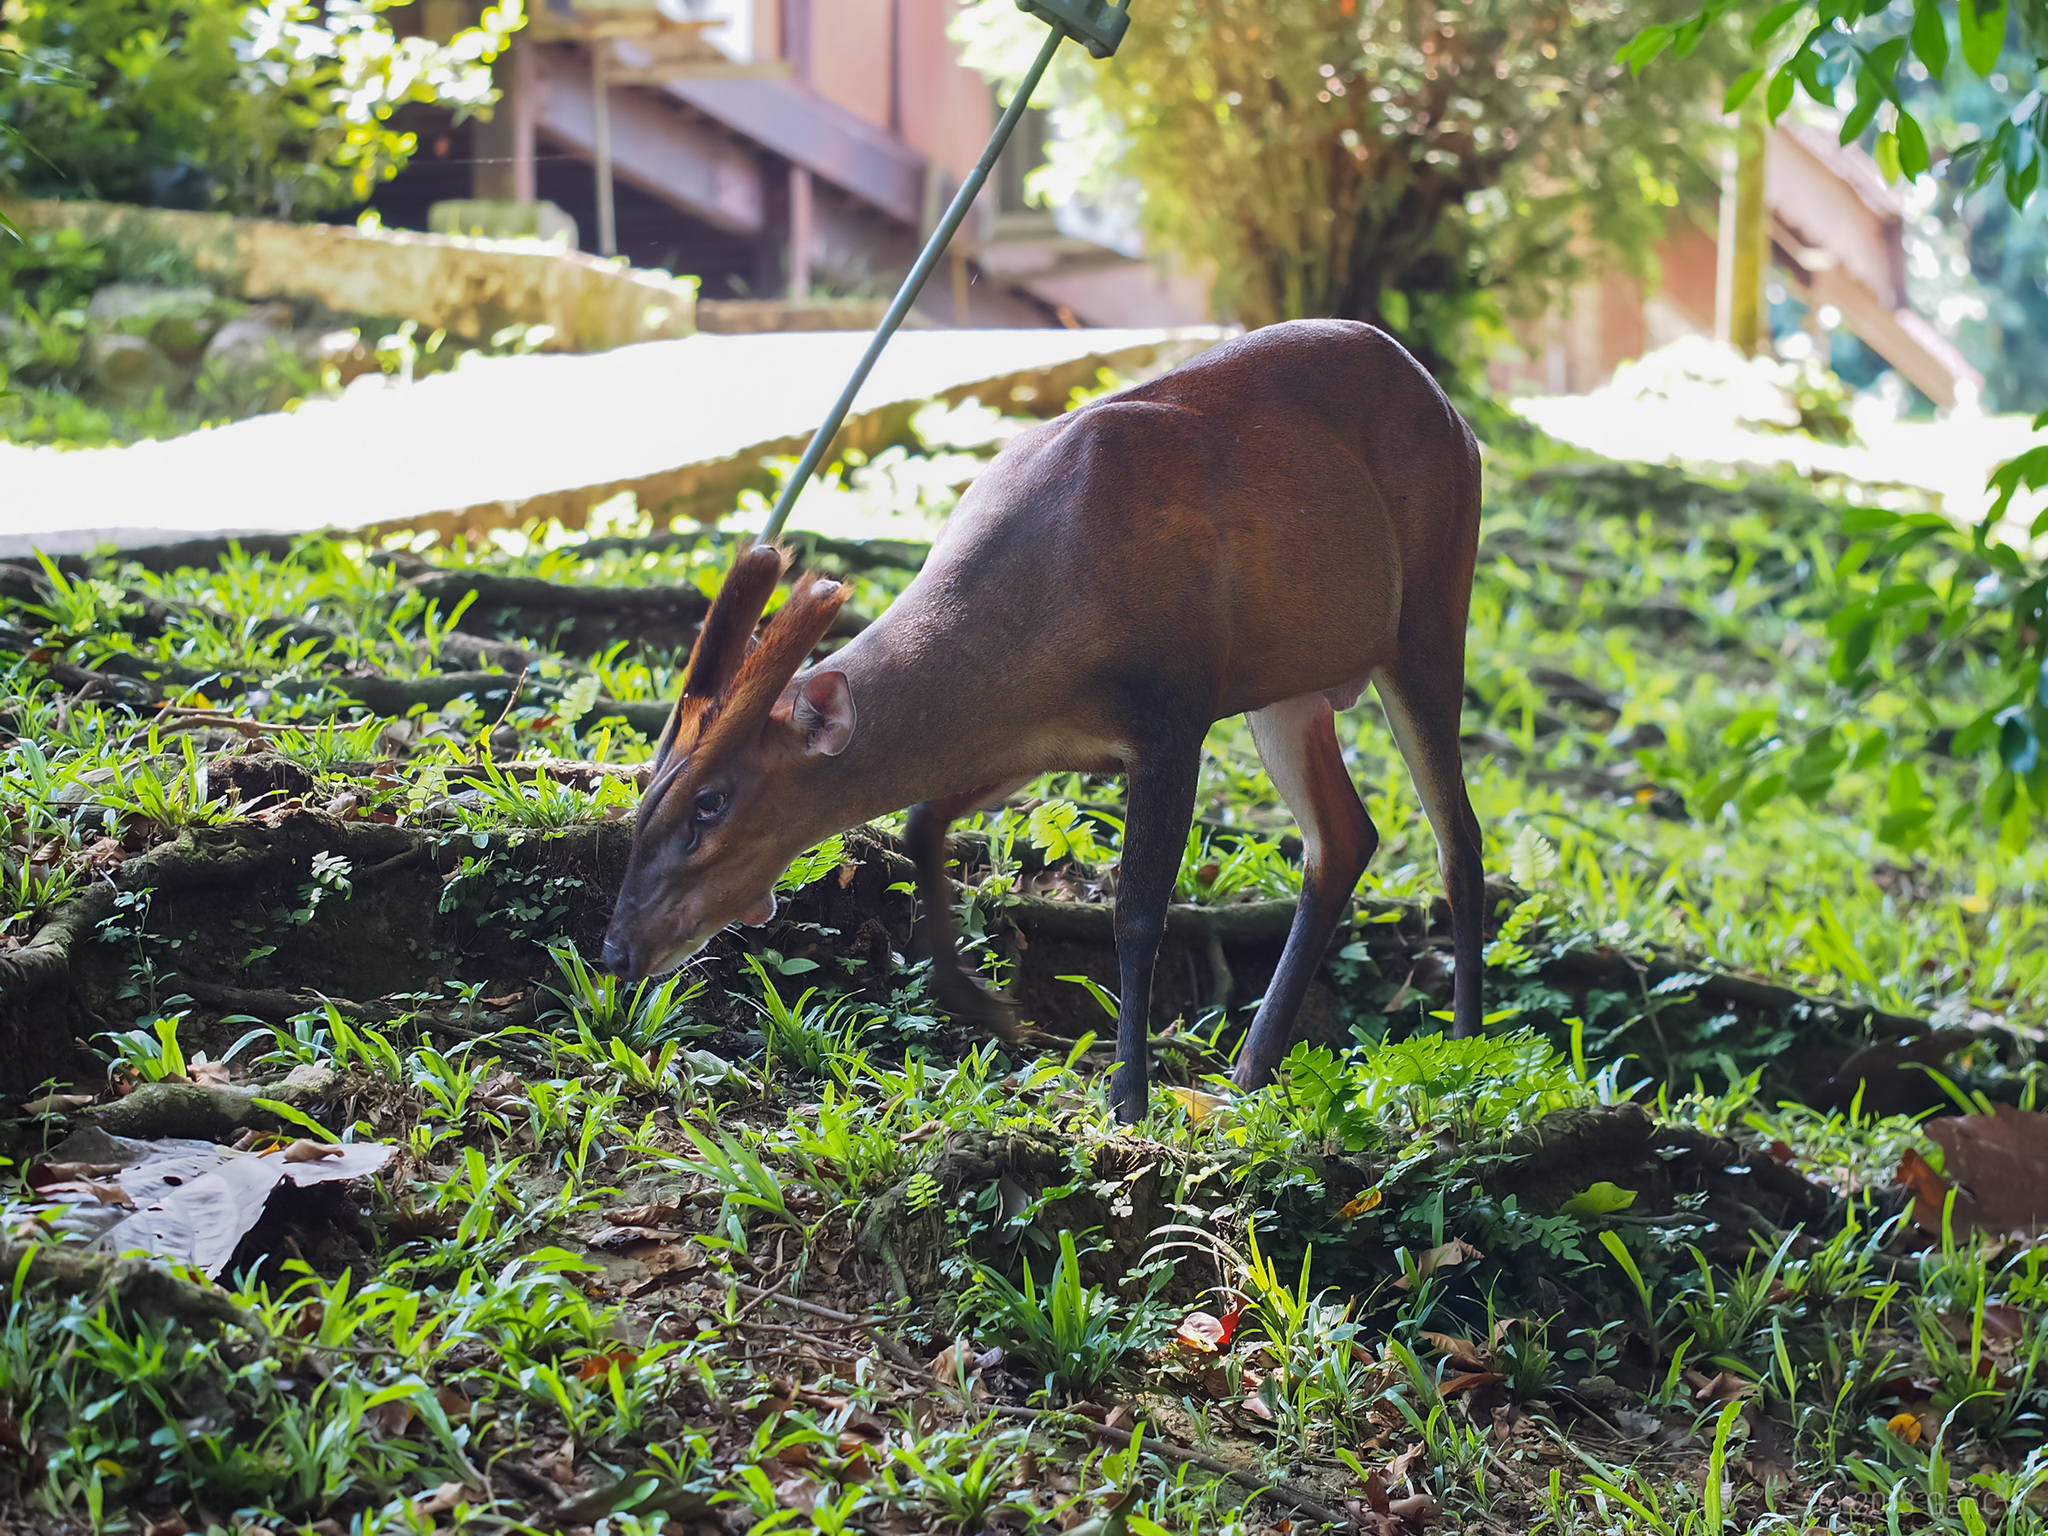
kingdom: Animalia
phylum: Chordata
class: Mammalia
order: Artiodactyla
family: Cervidae
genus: Muntiacus
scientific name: Muntiacus muntjak
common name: Indian muntjac
